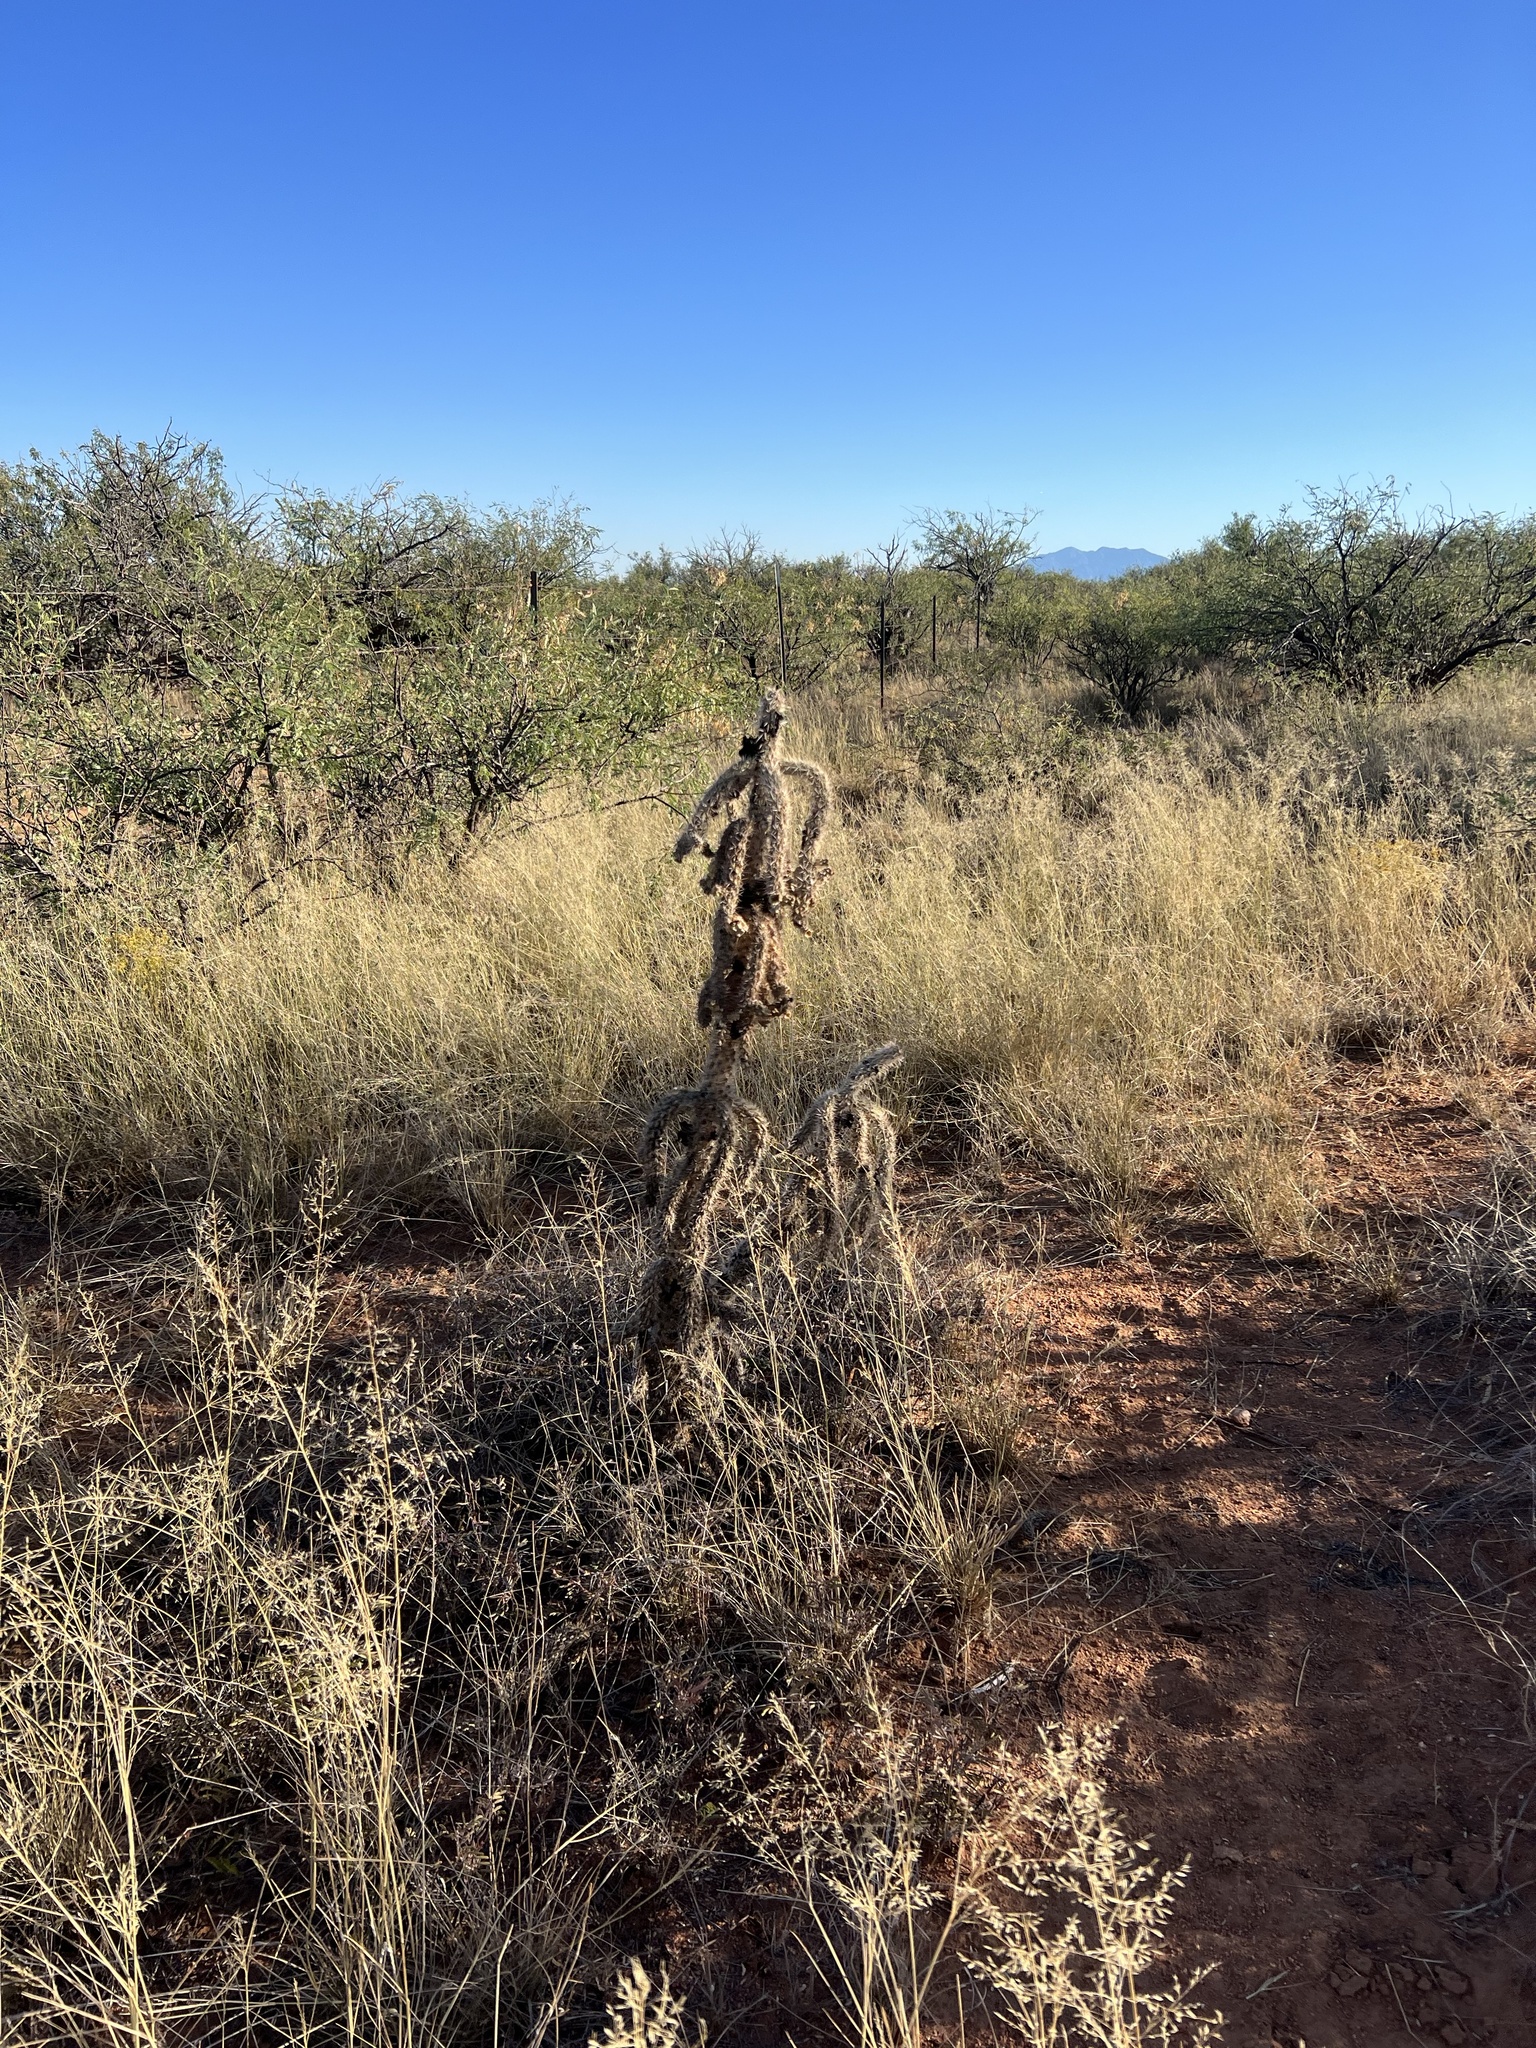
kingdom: Plantae
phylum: Tracheophyta
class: Magnoliopsida
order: Caryophyllales
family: Cactaceae
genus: Cylindropuntia
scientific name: Cylindropuntia imbricata
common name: Candelabrum cactus
